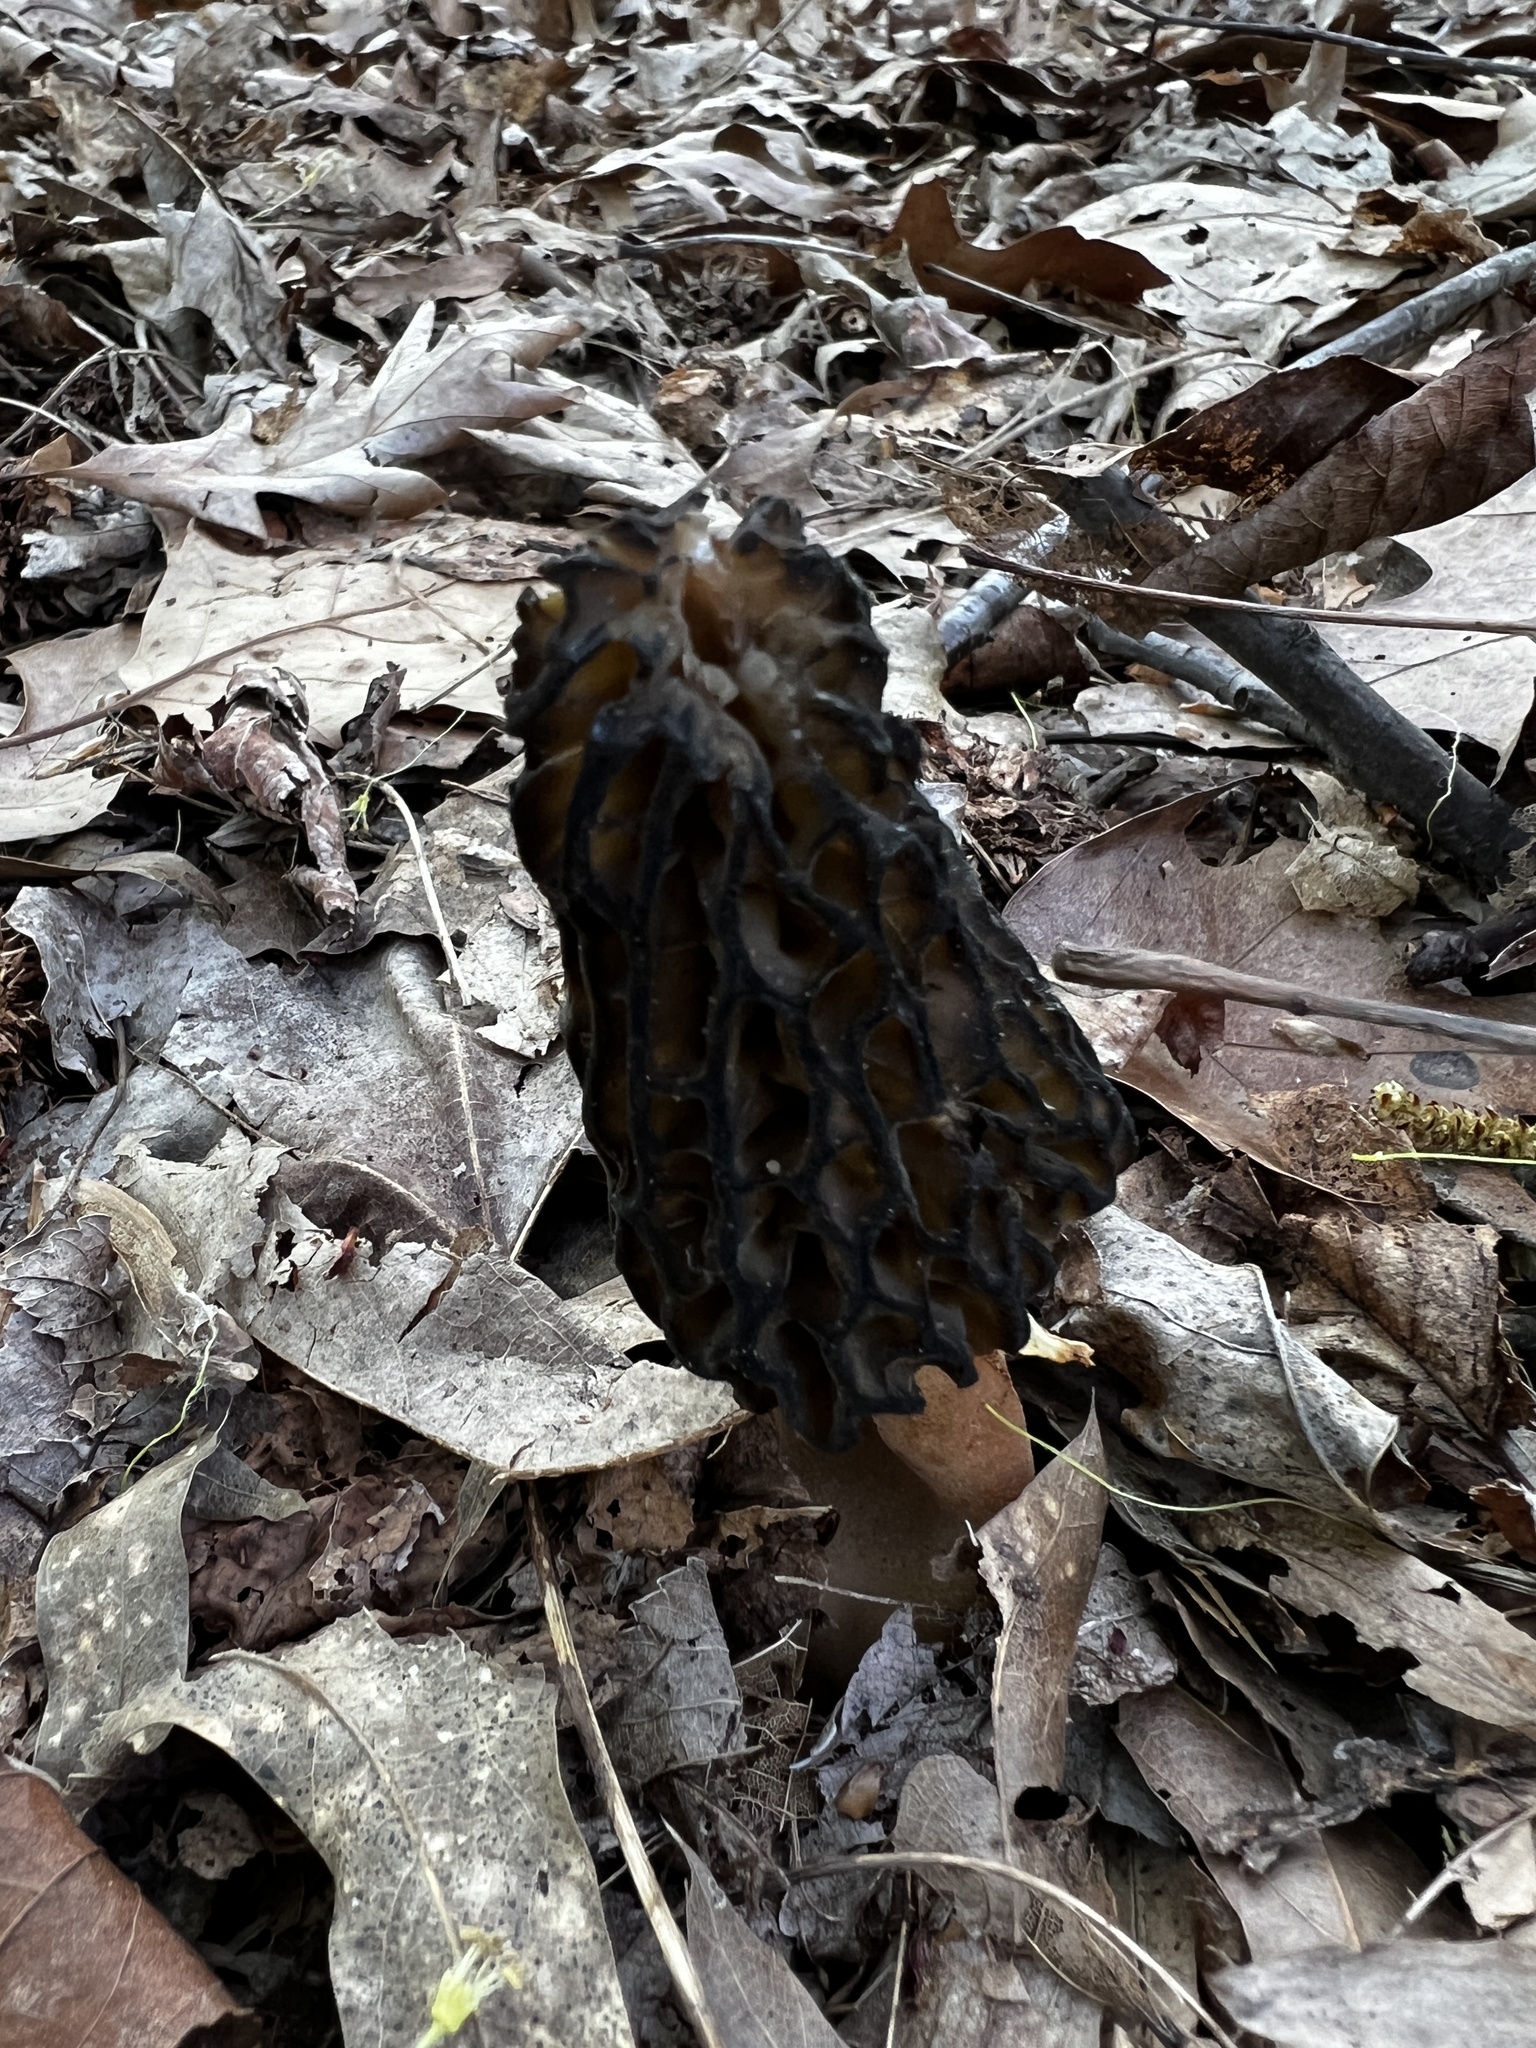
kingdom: Fungi
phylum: Ascomycota
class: Pezizomycetes
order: Pezizales
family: Morchellaceae
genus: Morchella
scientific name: Morchella angusticeps
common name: Black morel
